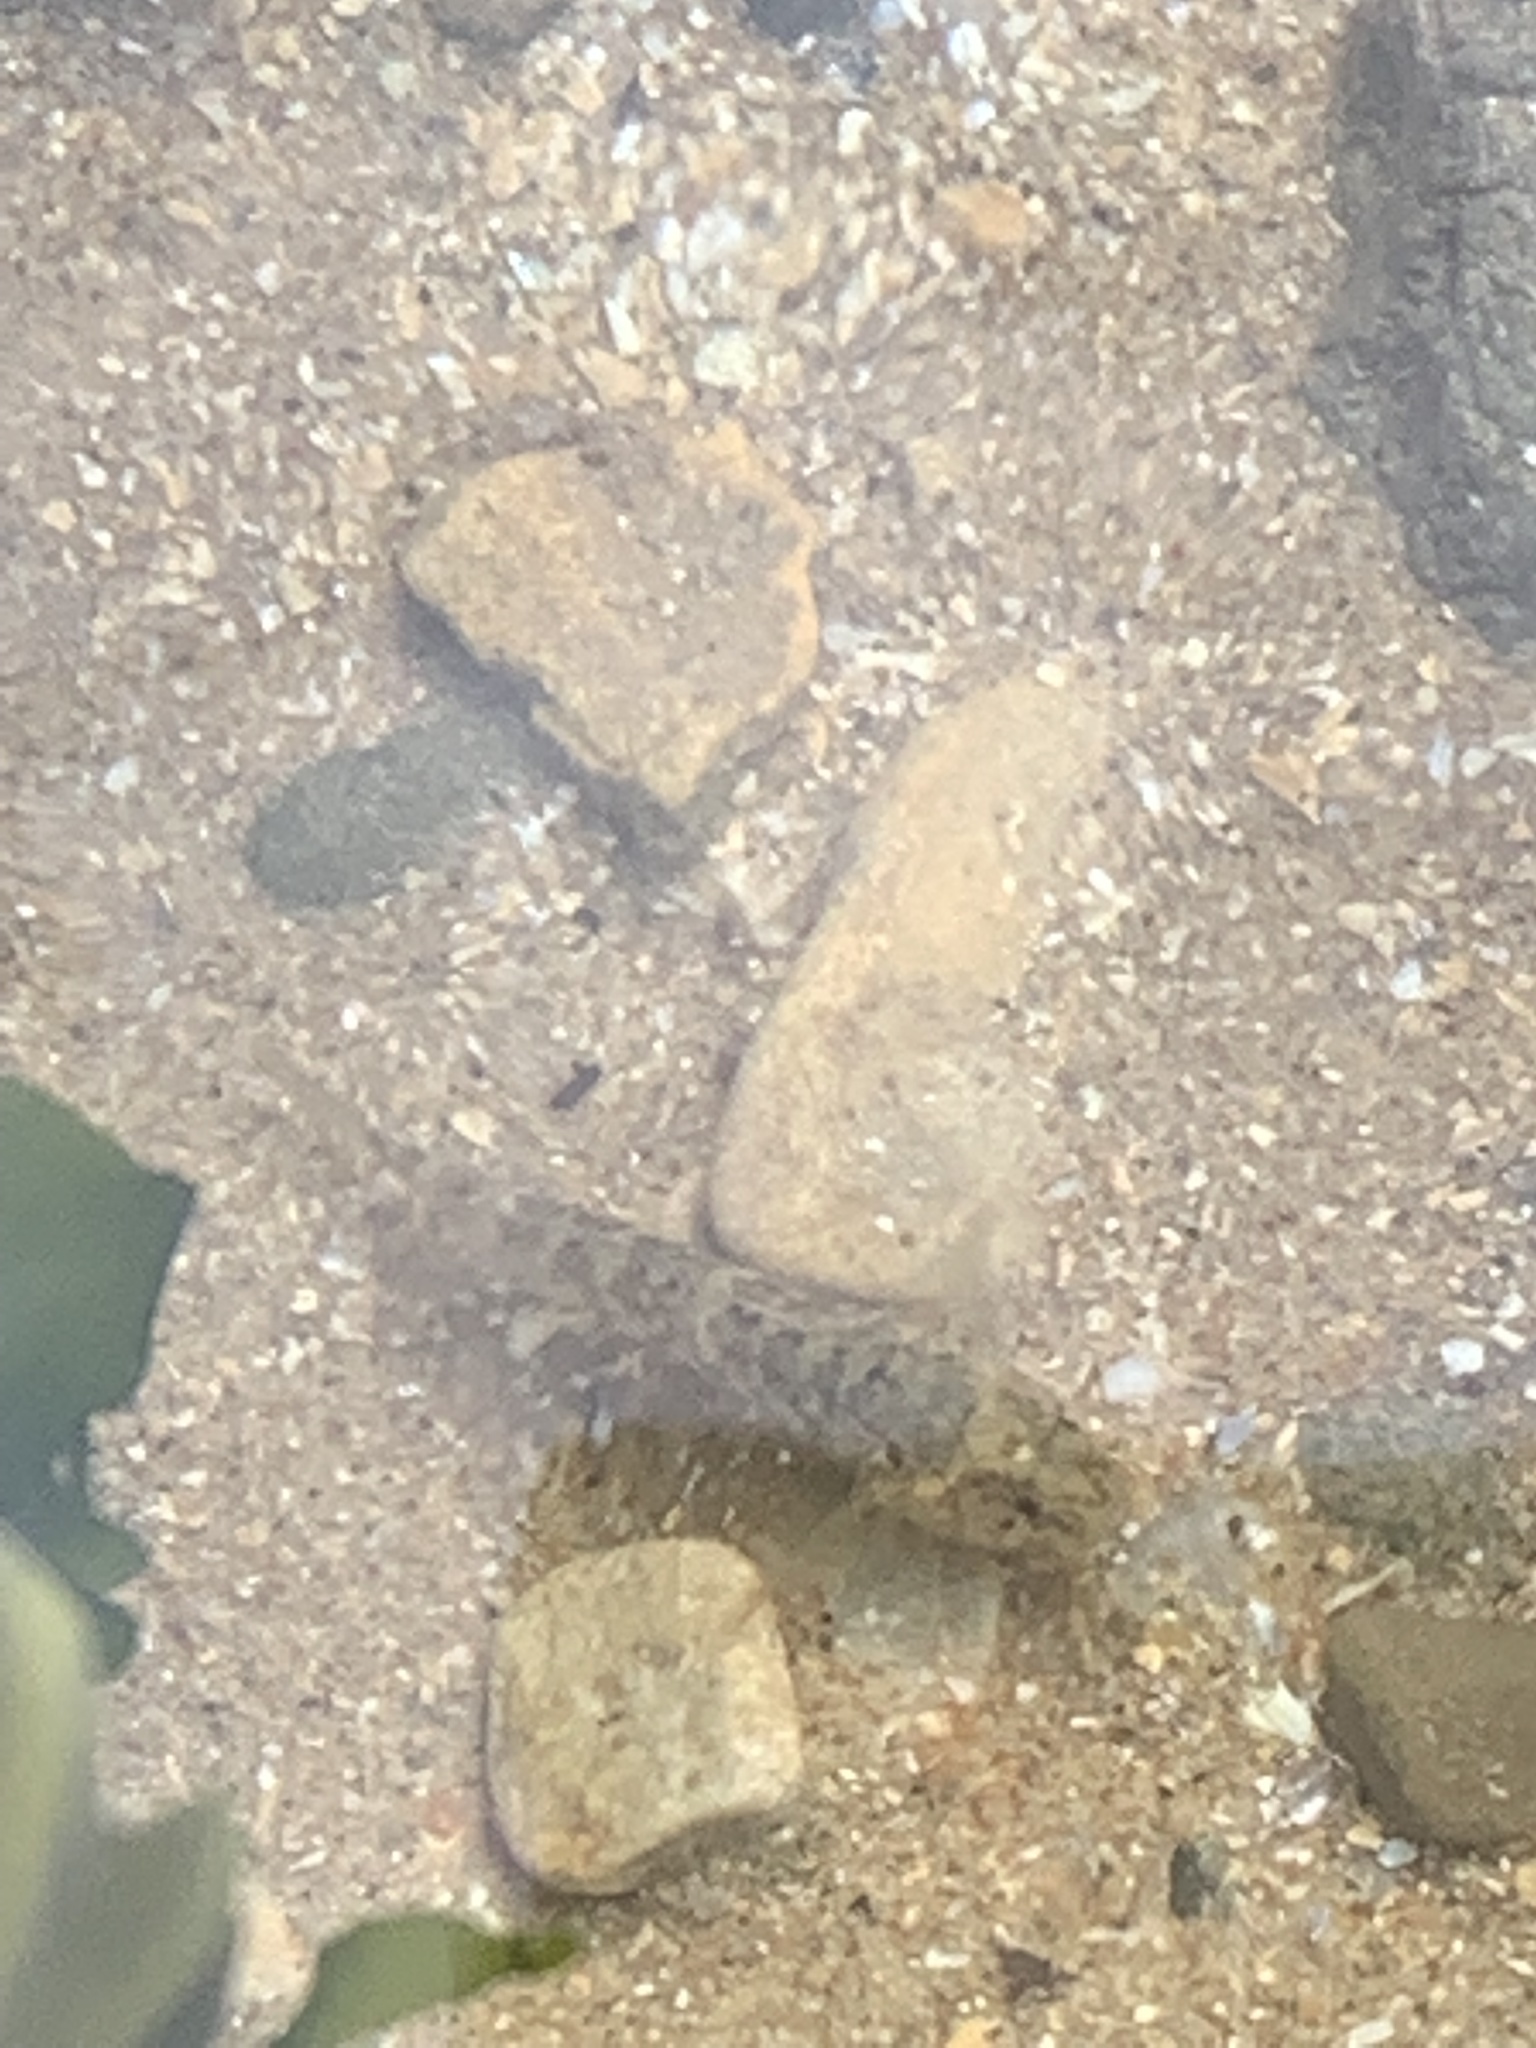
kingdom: Animalia
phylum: Chordata
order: Perciformes
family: Gobiidae
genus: Gobius
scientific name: Gobius paganellus
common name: Rock goby
